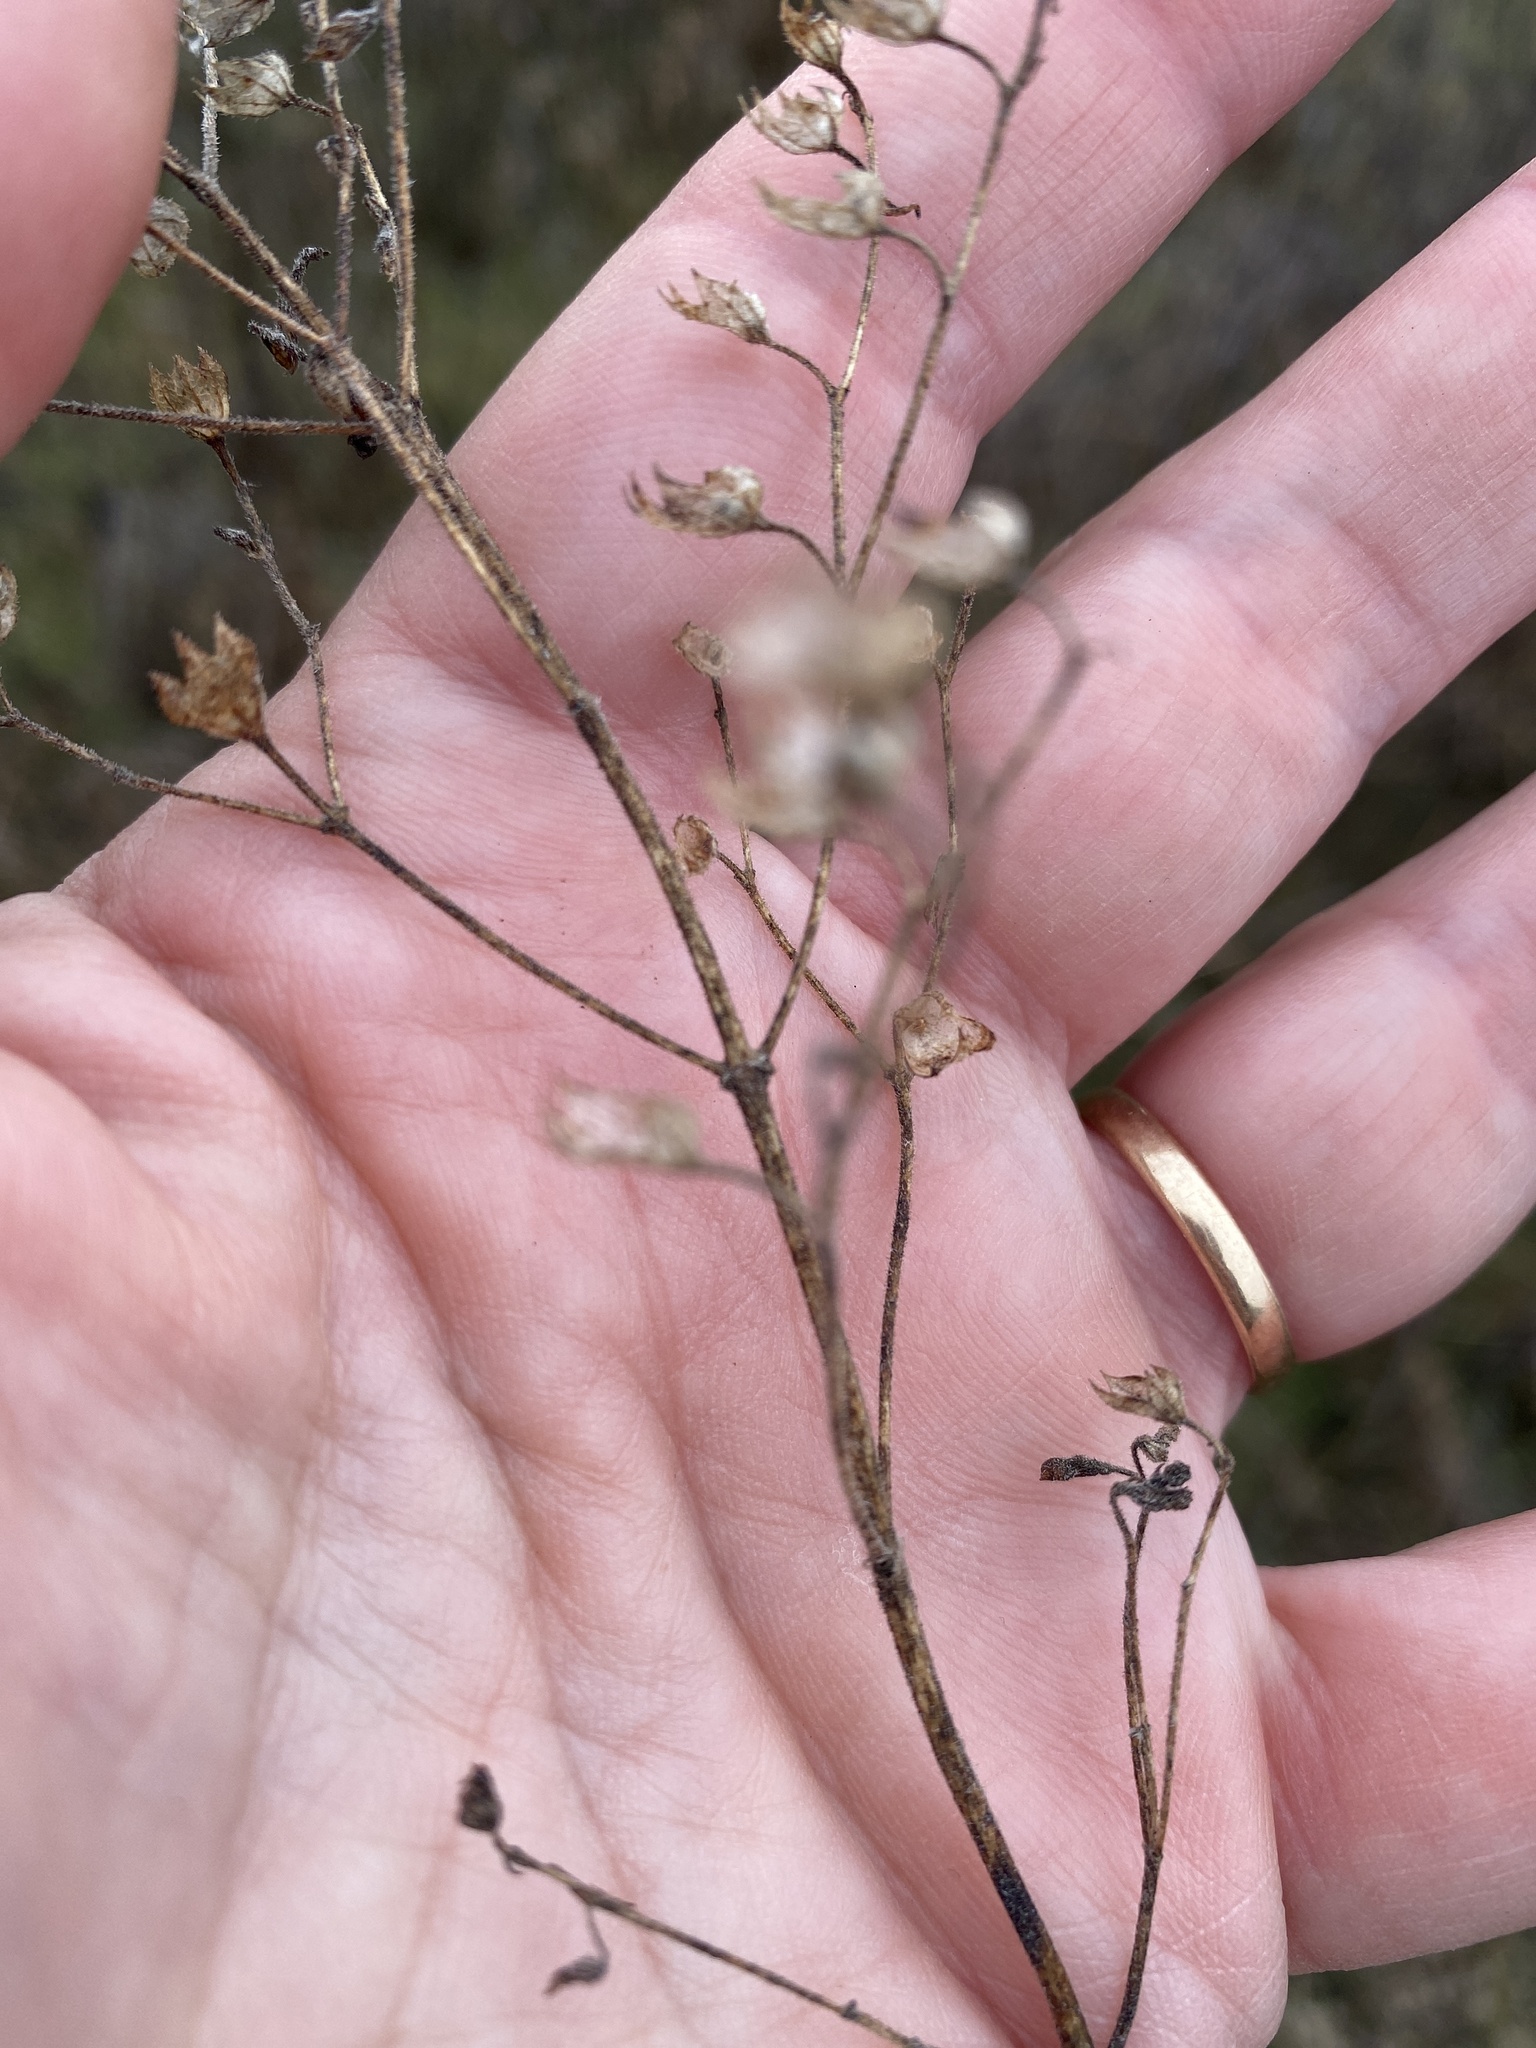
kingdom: Plantae
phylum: Tracheophyta
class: Magnoliopsida
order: Lamiales
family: Lamiaceae
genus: Trichostema
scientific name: Trichostema dichotomum
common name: Bastard pennyroyal
